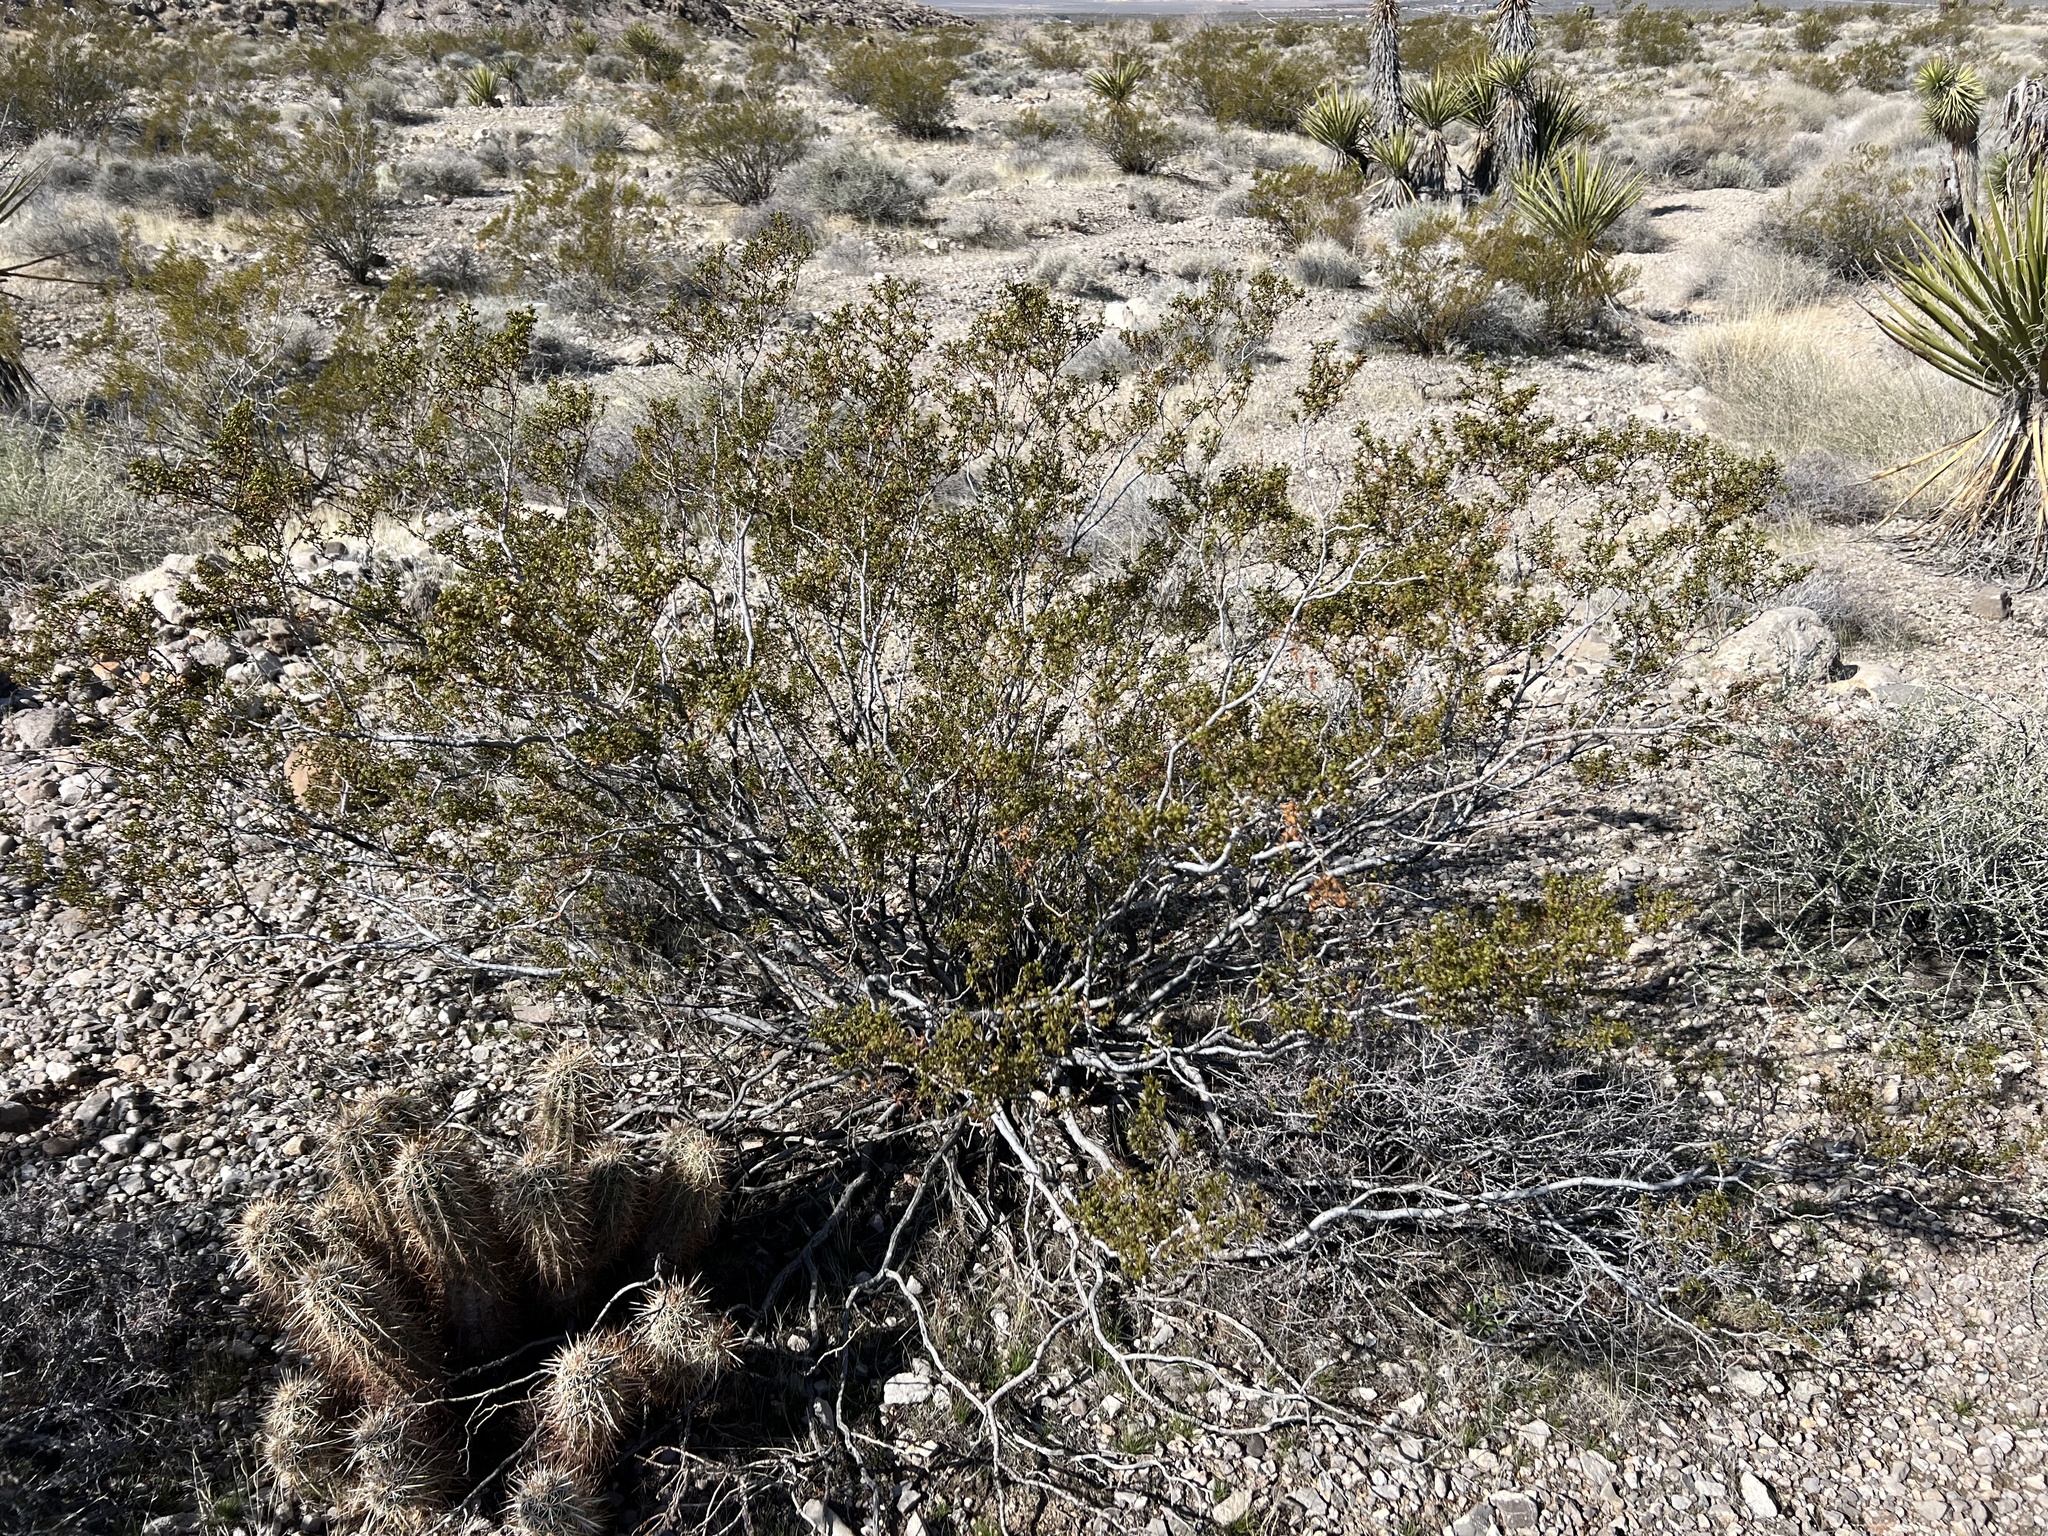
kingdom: Plantae
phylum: Tracheophyta
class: Magnoliopsida
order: Zygophyllales
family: Zygophyllaceae
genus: Larrea
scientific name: Larrea tridentata
